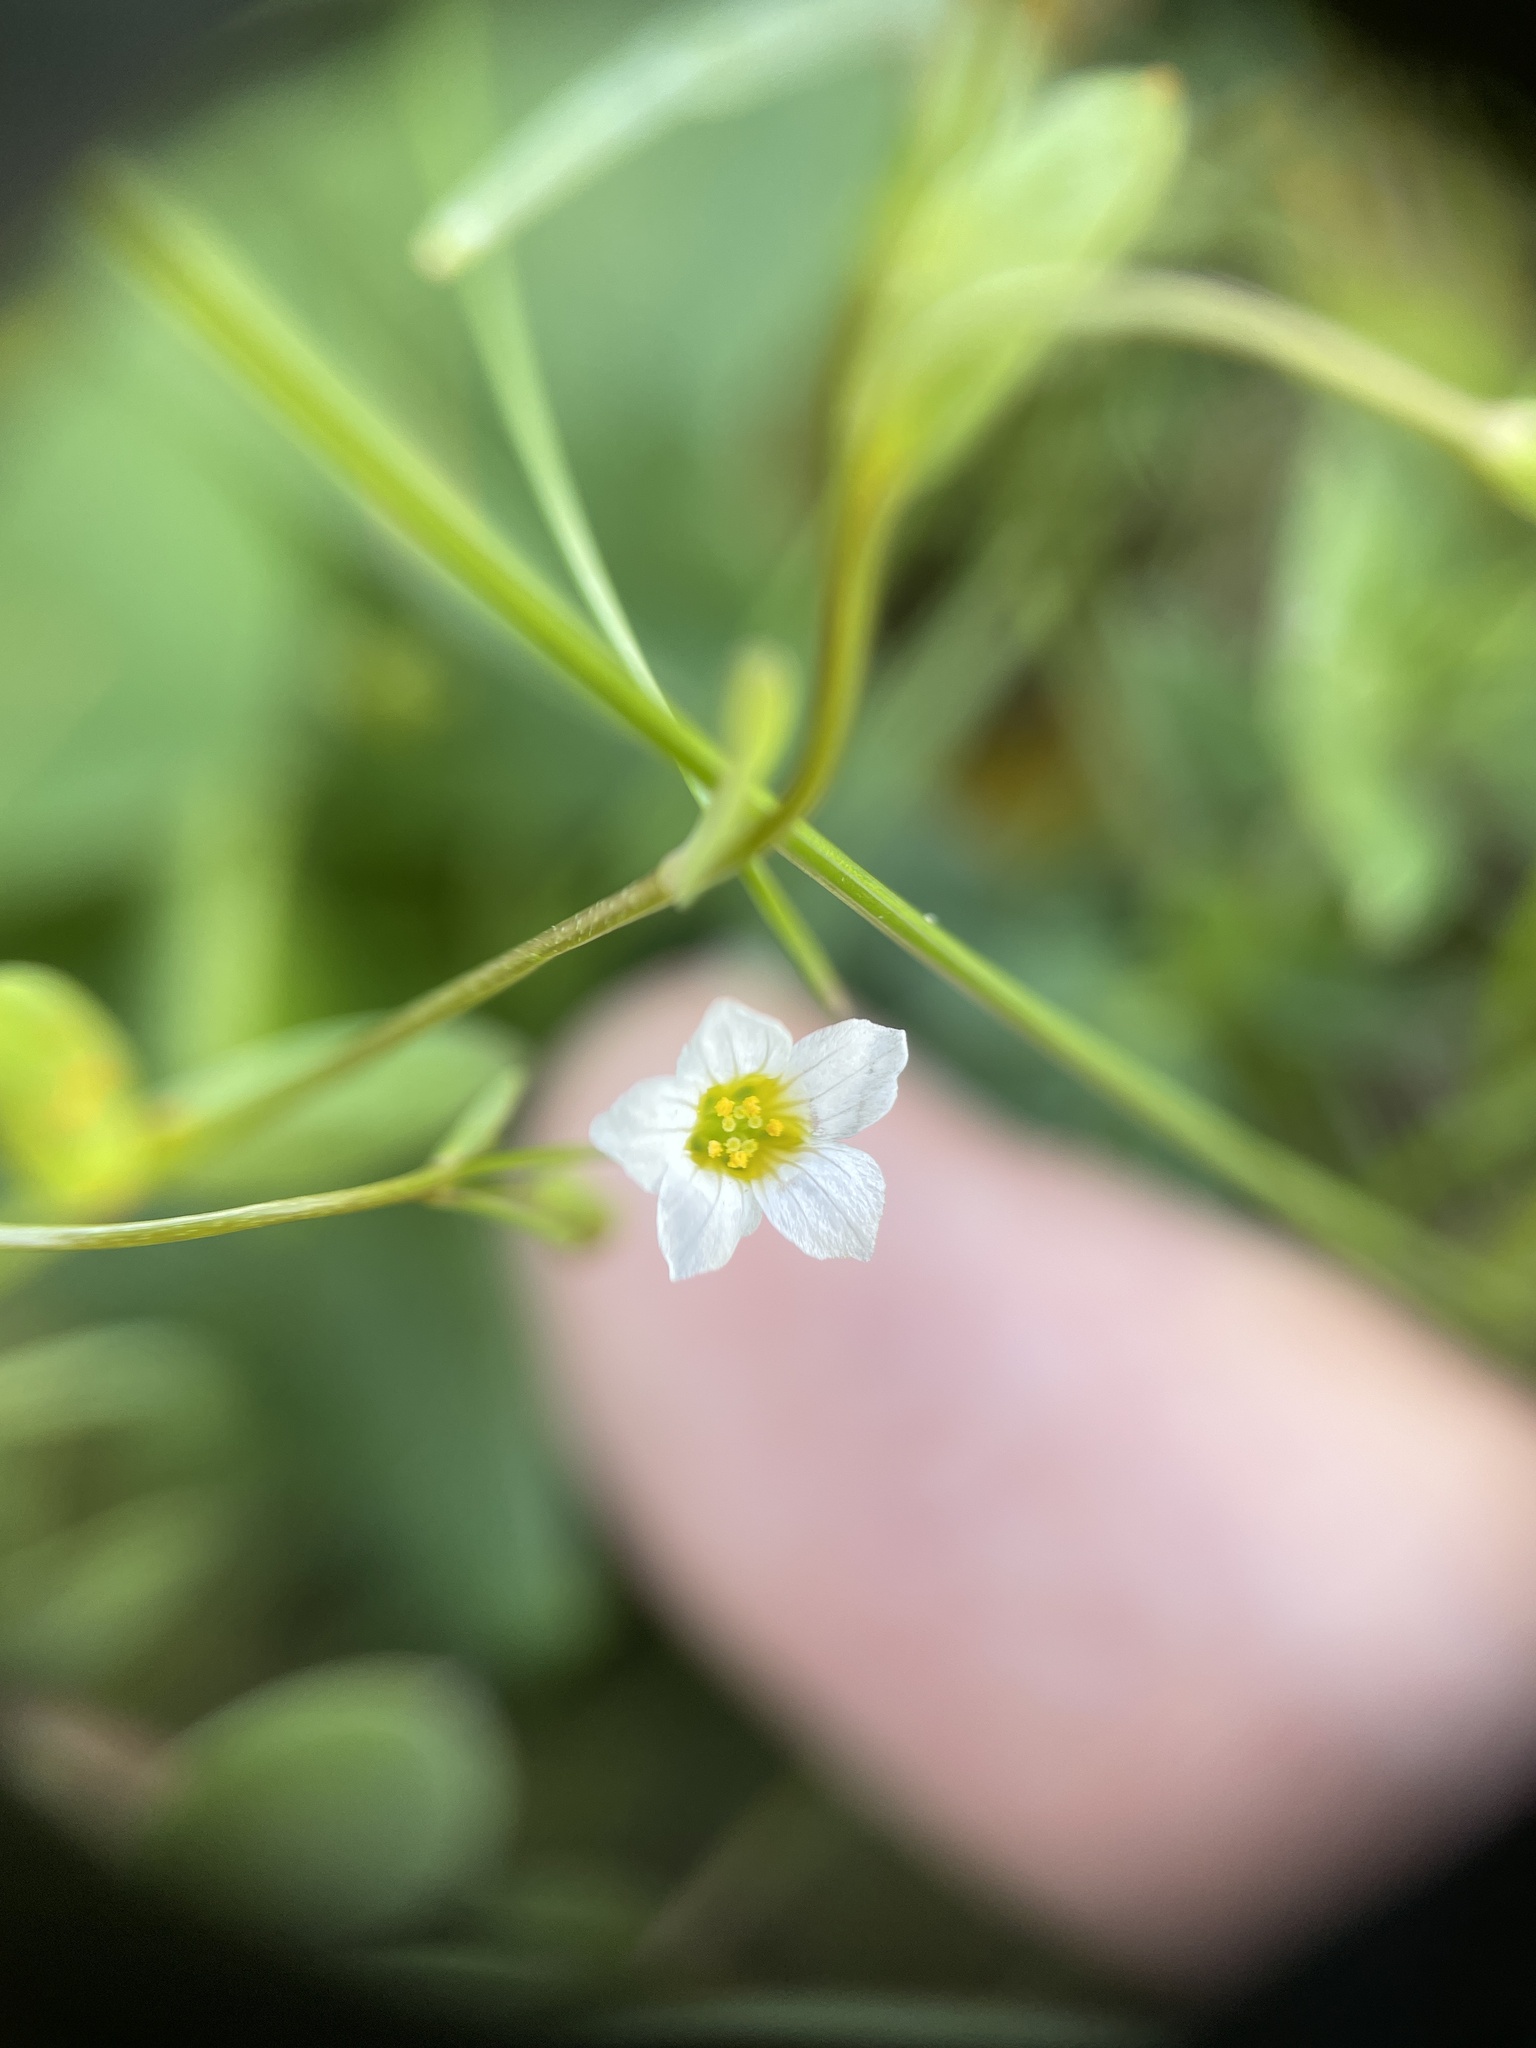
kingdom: Plantae
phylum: Tracheophyta
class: Magnoliopsida
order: Malpighiales
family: Linaceae
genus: Linum
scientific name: Linum catharticum
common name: Fairy flax
